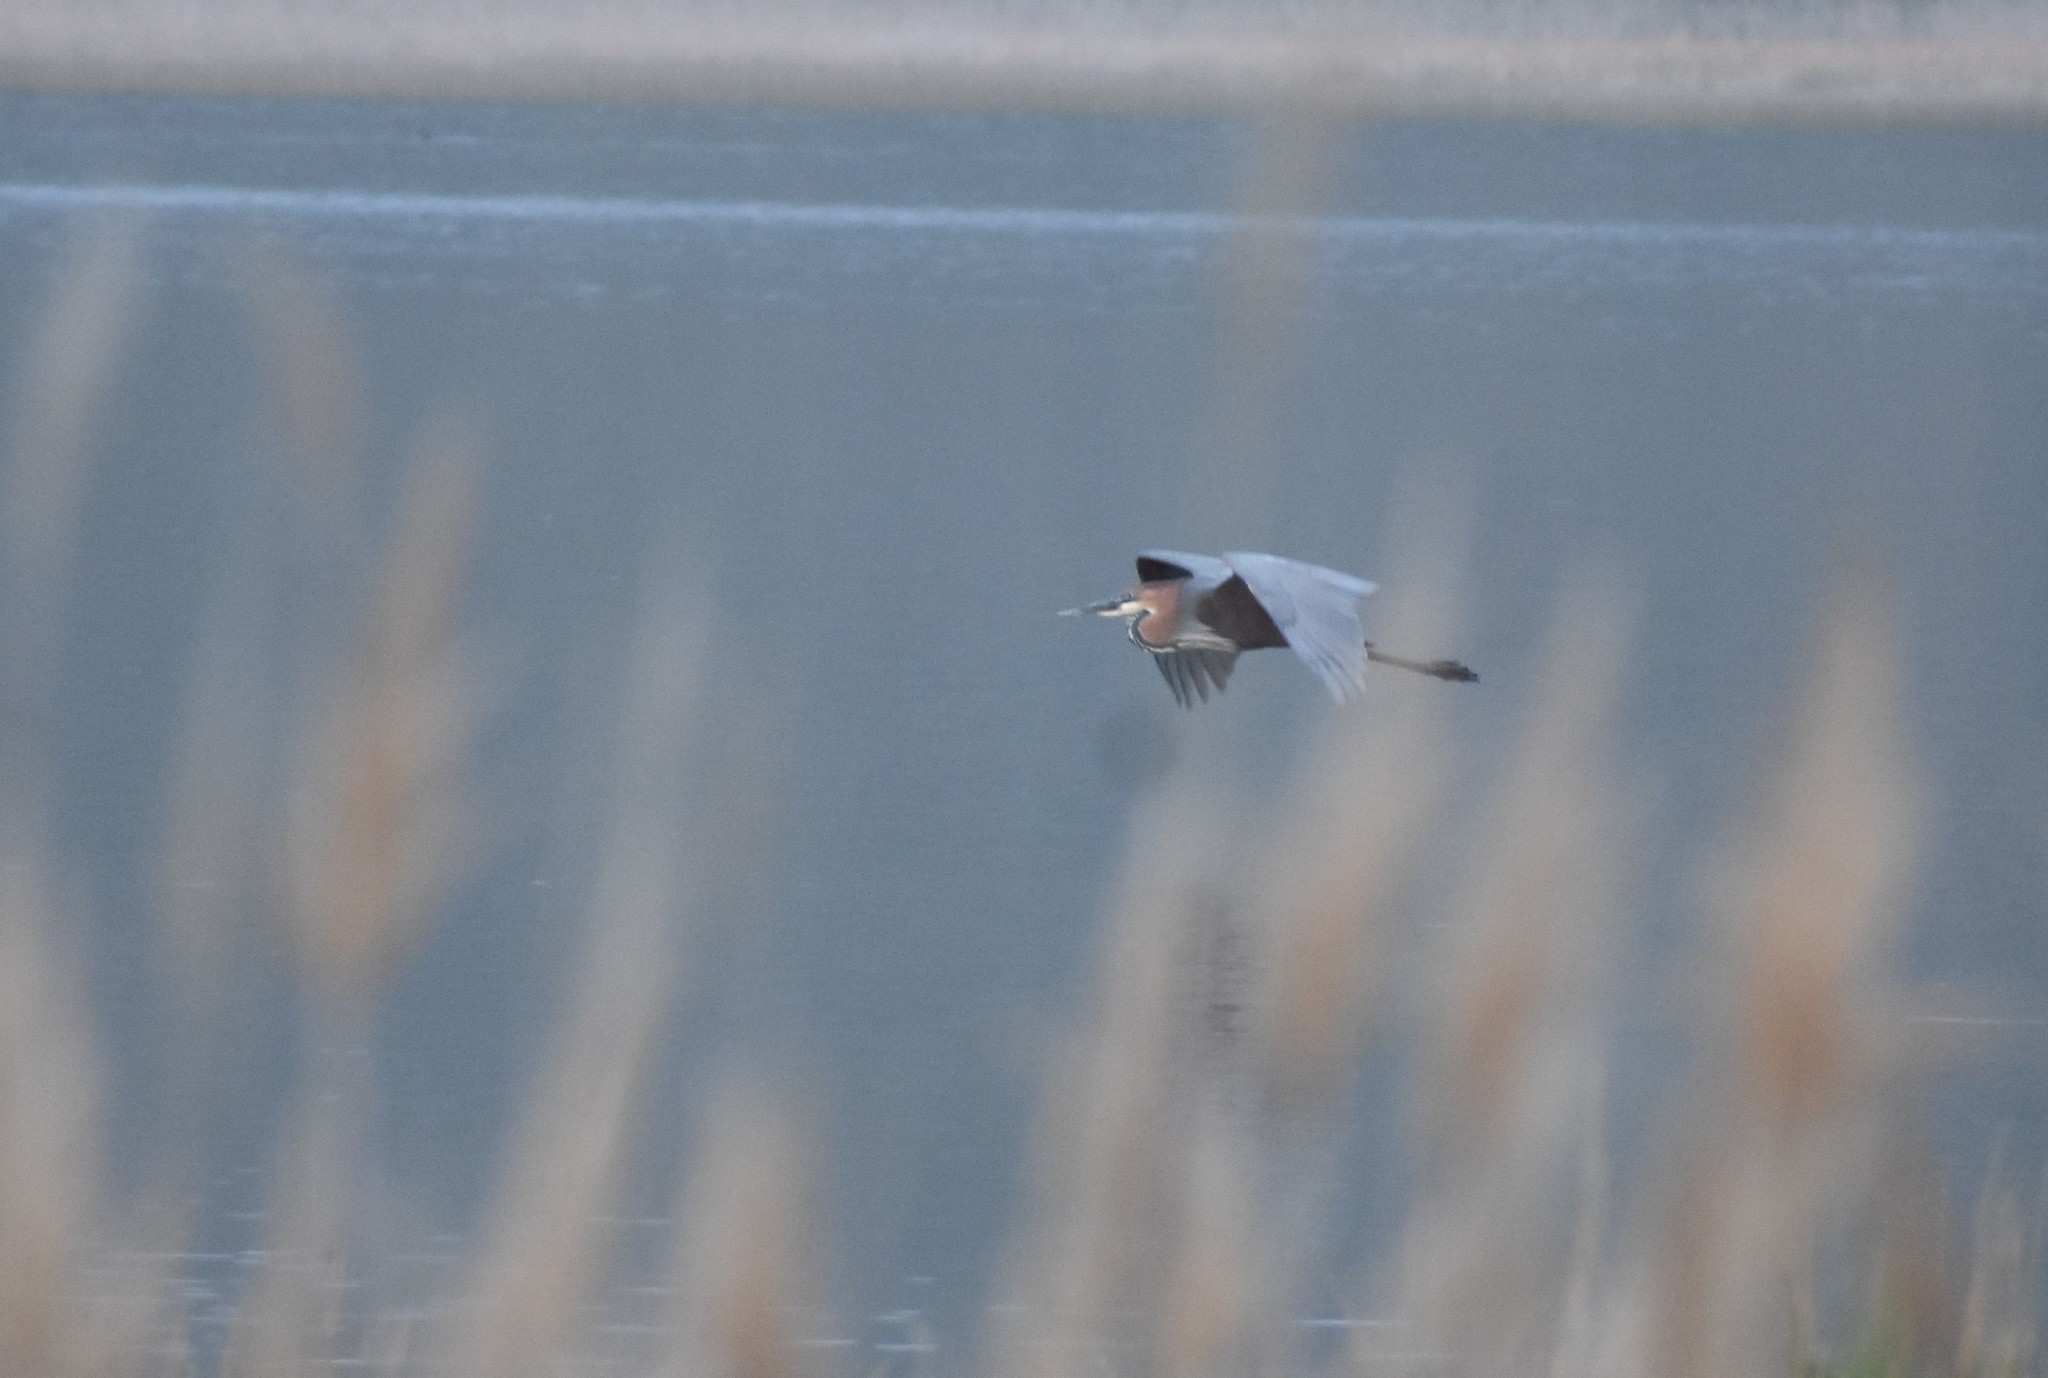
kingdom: Animalia
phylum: Chordata
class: Aves
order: Pelecaniformes
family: Ardeidae
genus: Ardea
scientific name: Ardea goliath
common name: Goliath heron
